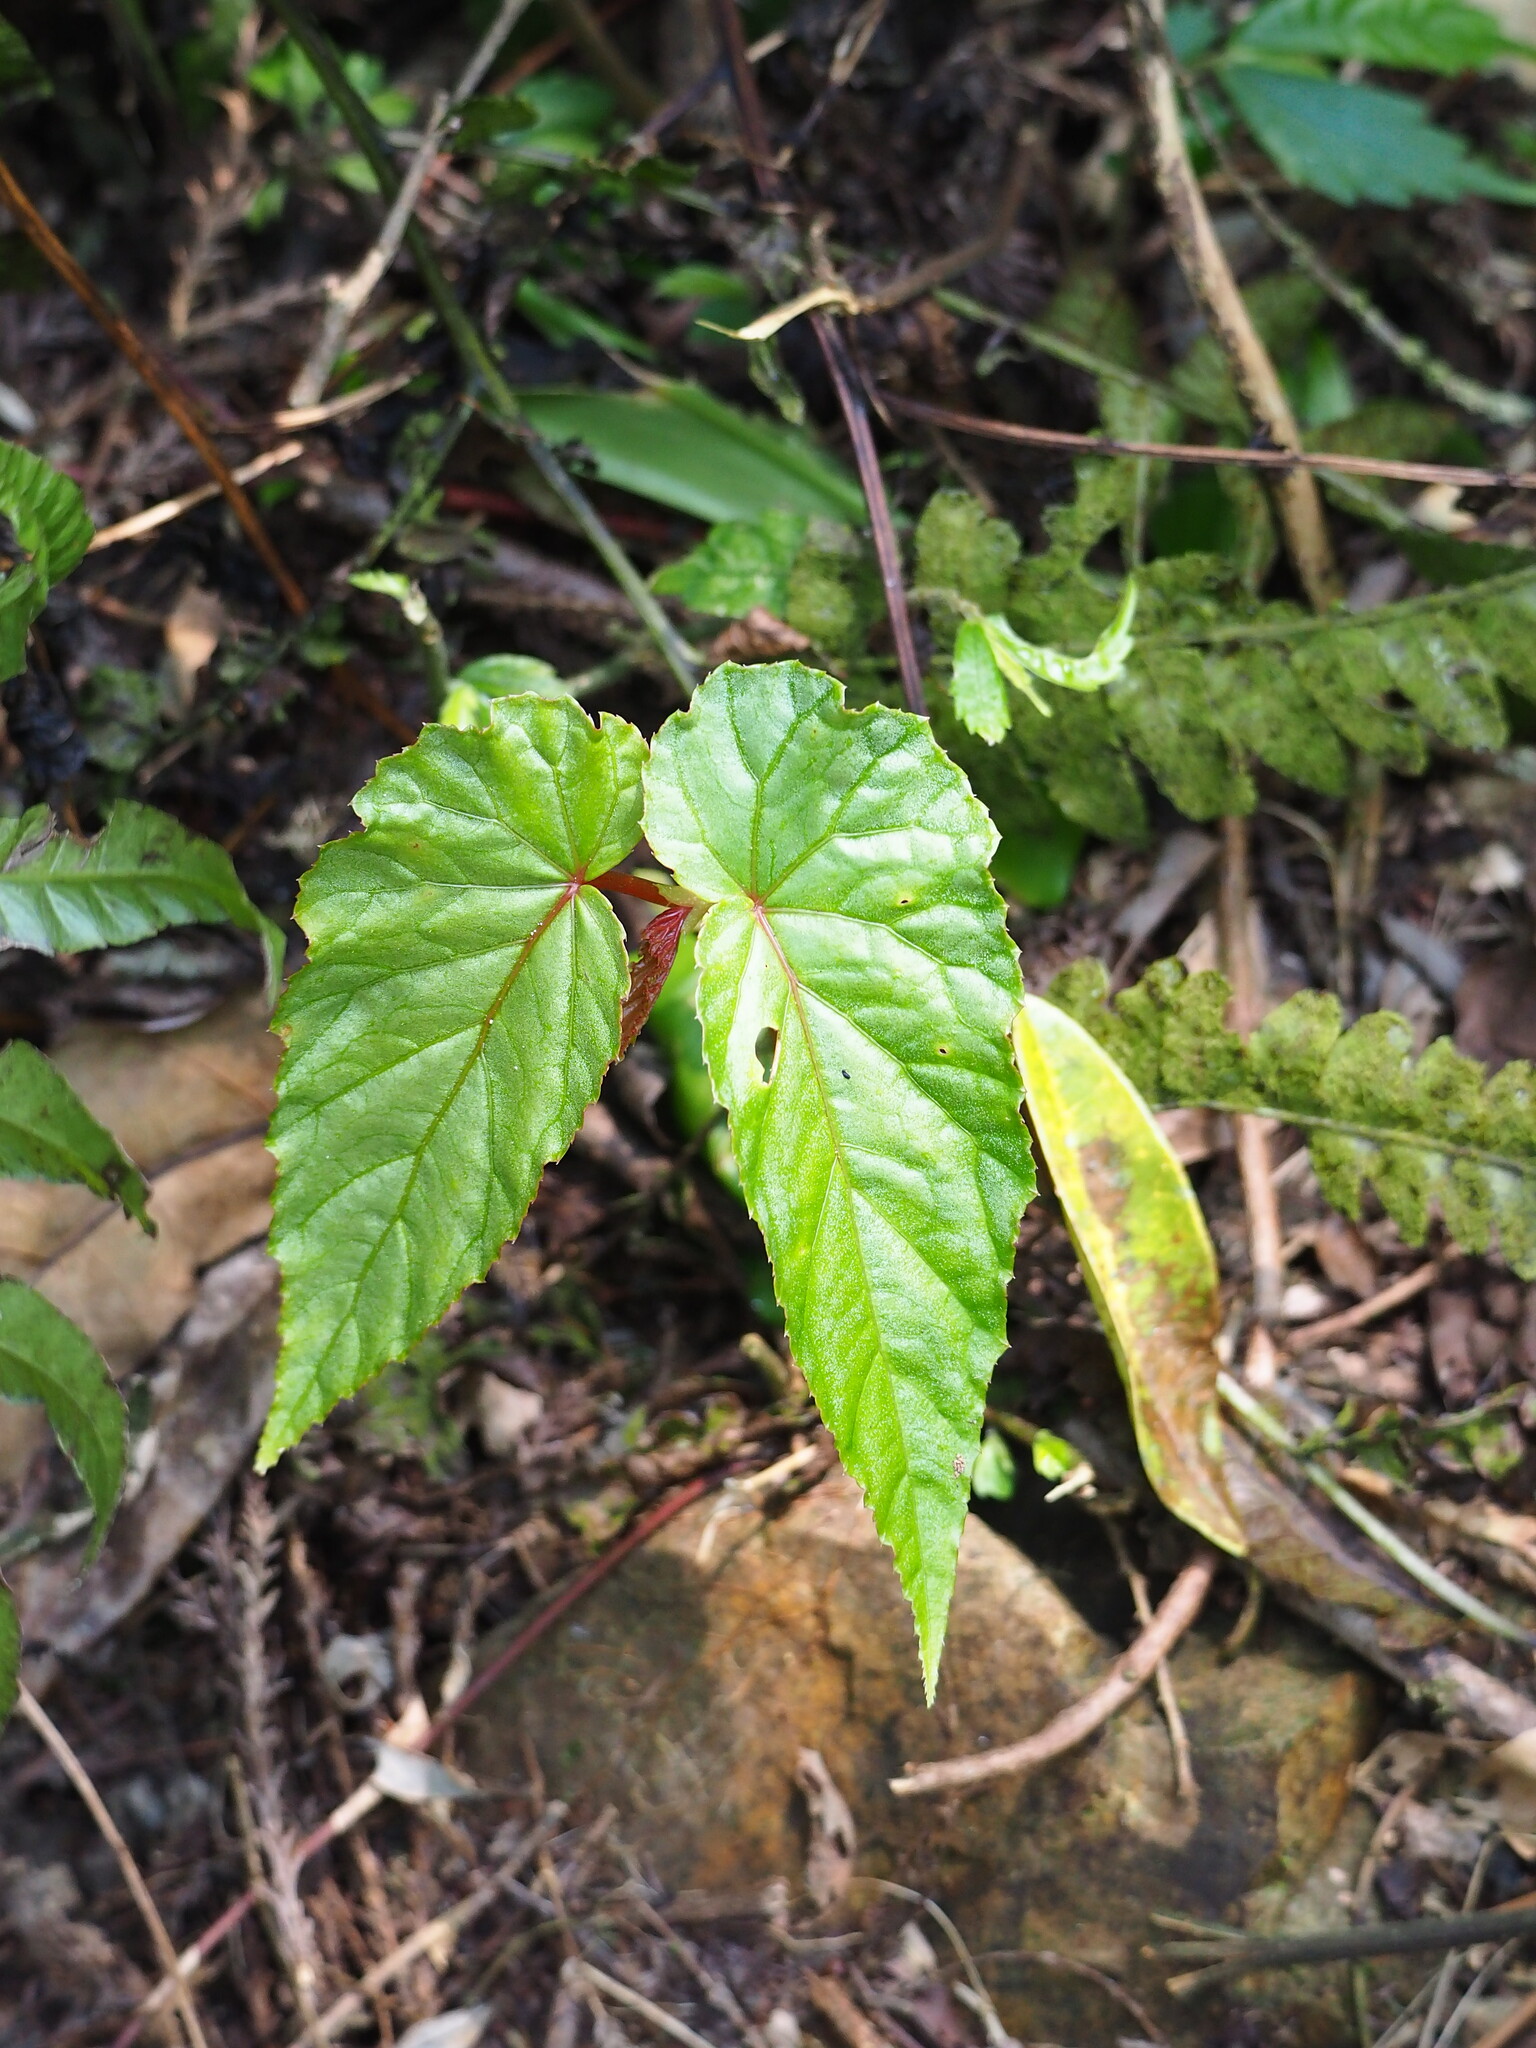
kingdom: Plantae
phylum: Tracheophyta
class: Magnoliopsida
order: Cucurbitales
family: Begoniaceae
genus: Begonia
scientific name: Begonia longifolia
